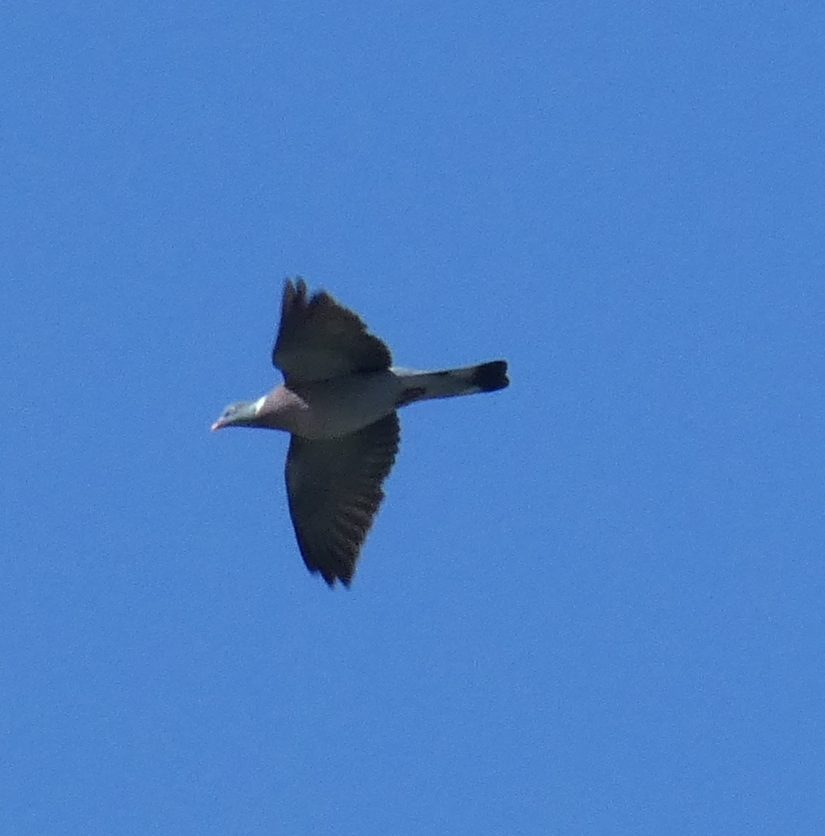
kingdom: Animalia
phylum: Chordata
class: Aves
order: Columbiformes
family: Columbidae
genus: Columba
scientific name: Columba palumbus
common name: Common wood pigeon
